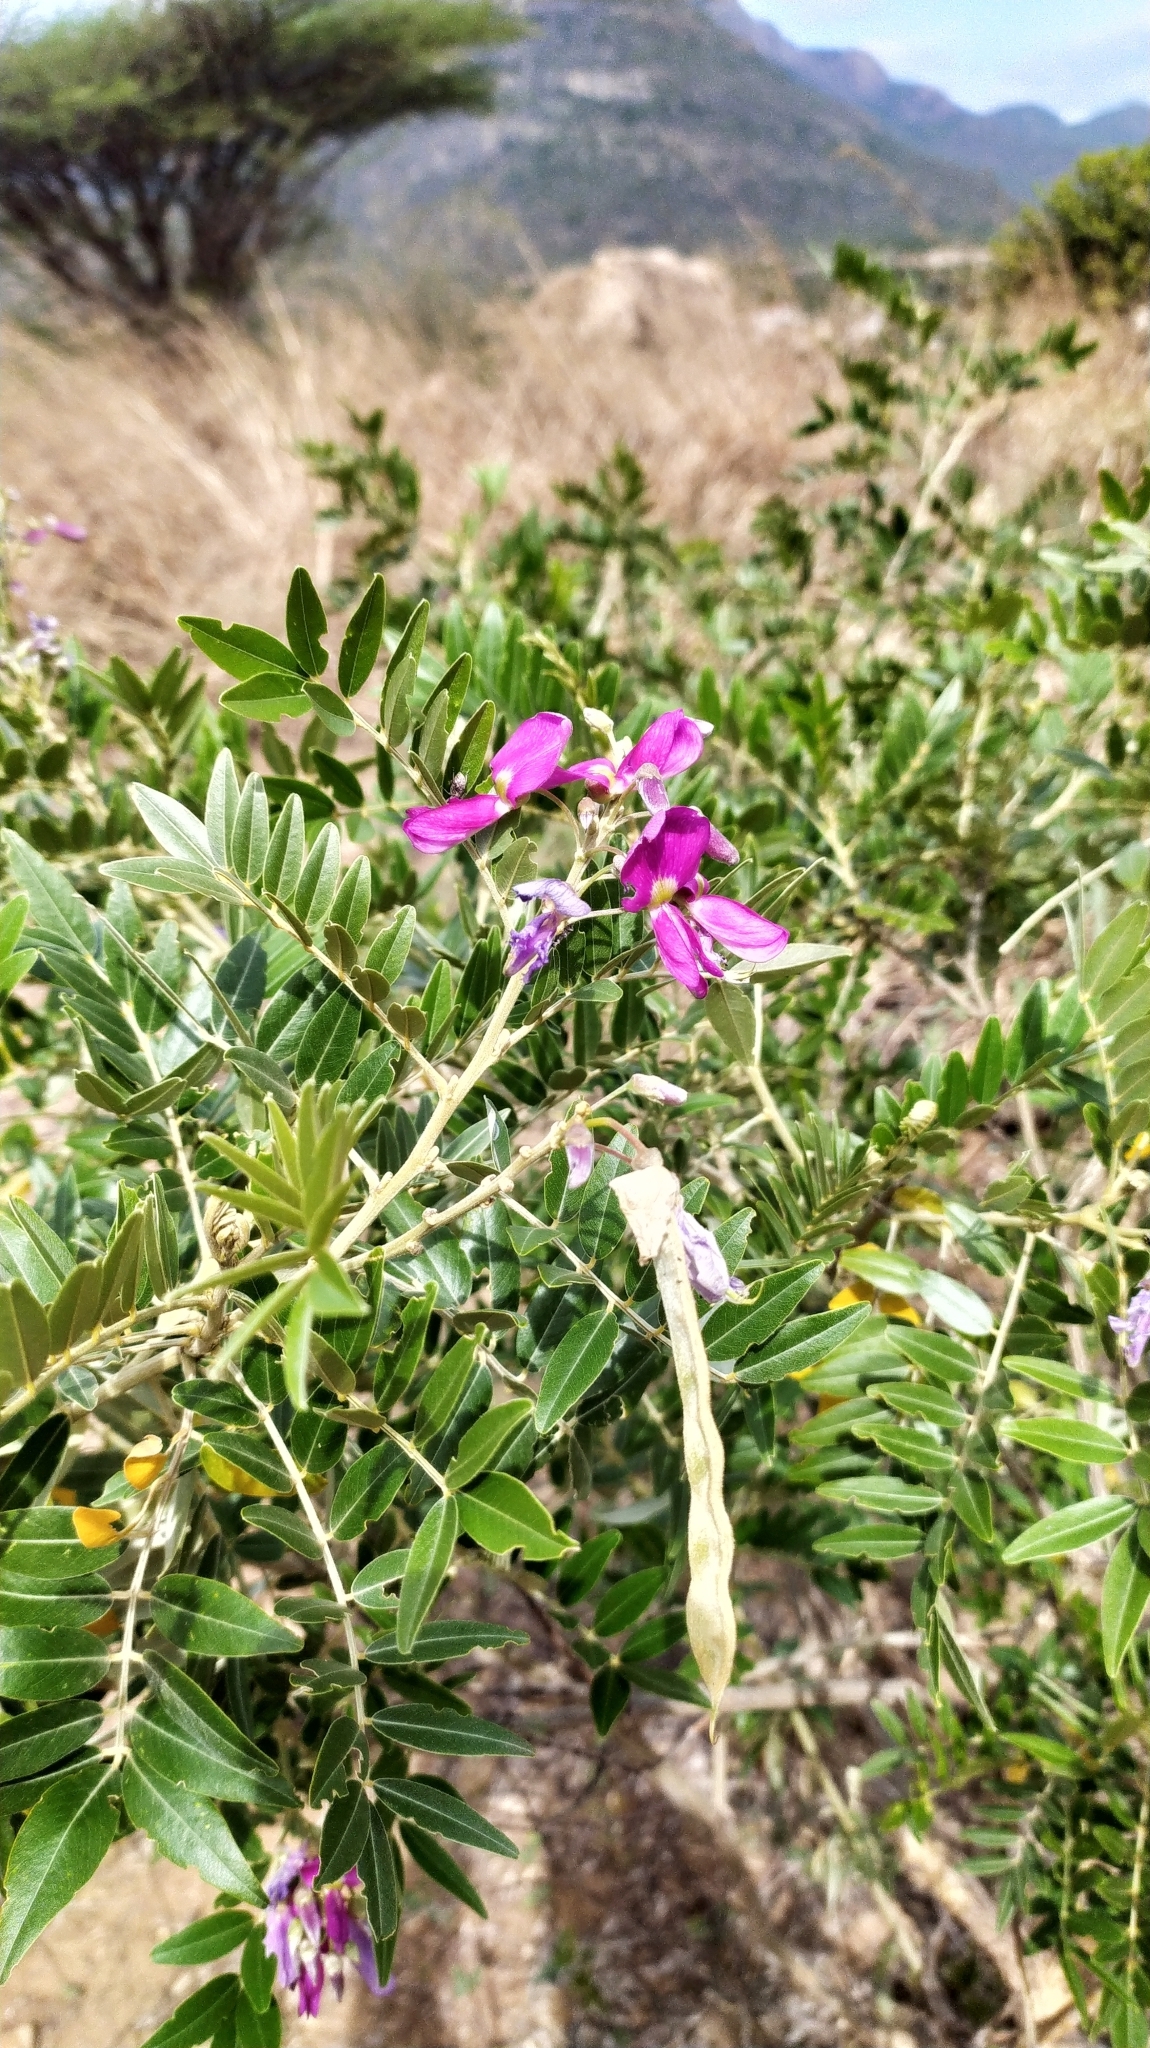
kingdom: Plantae
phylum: Tracheophyta
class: Magnoliopsida
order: Fabales
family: Fabaceae
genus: Mundulea
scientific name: Mundulea sericea
